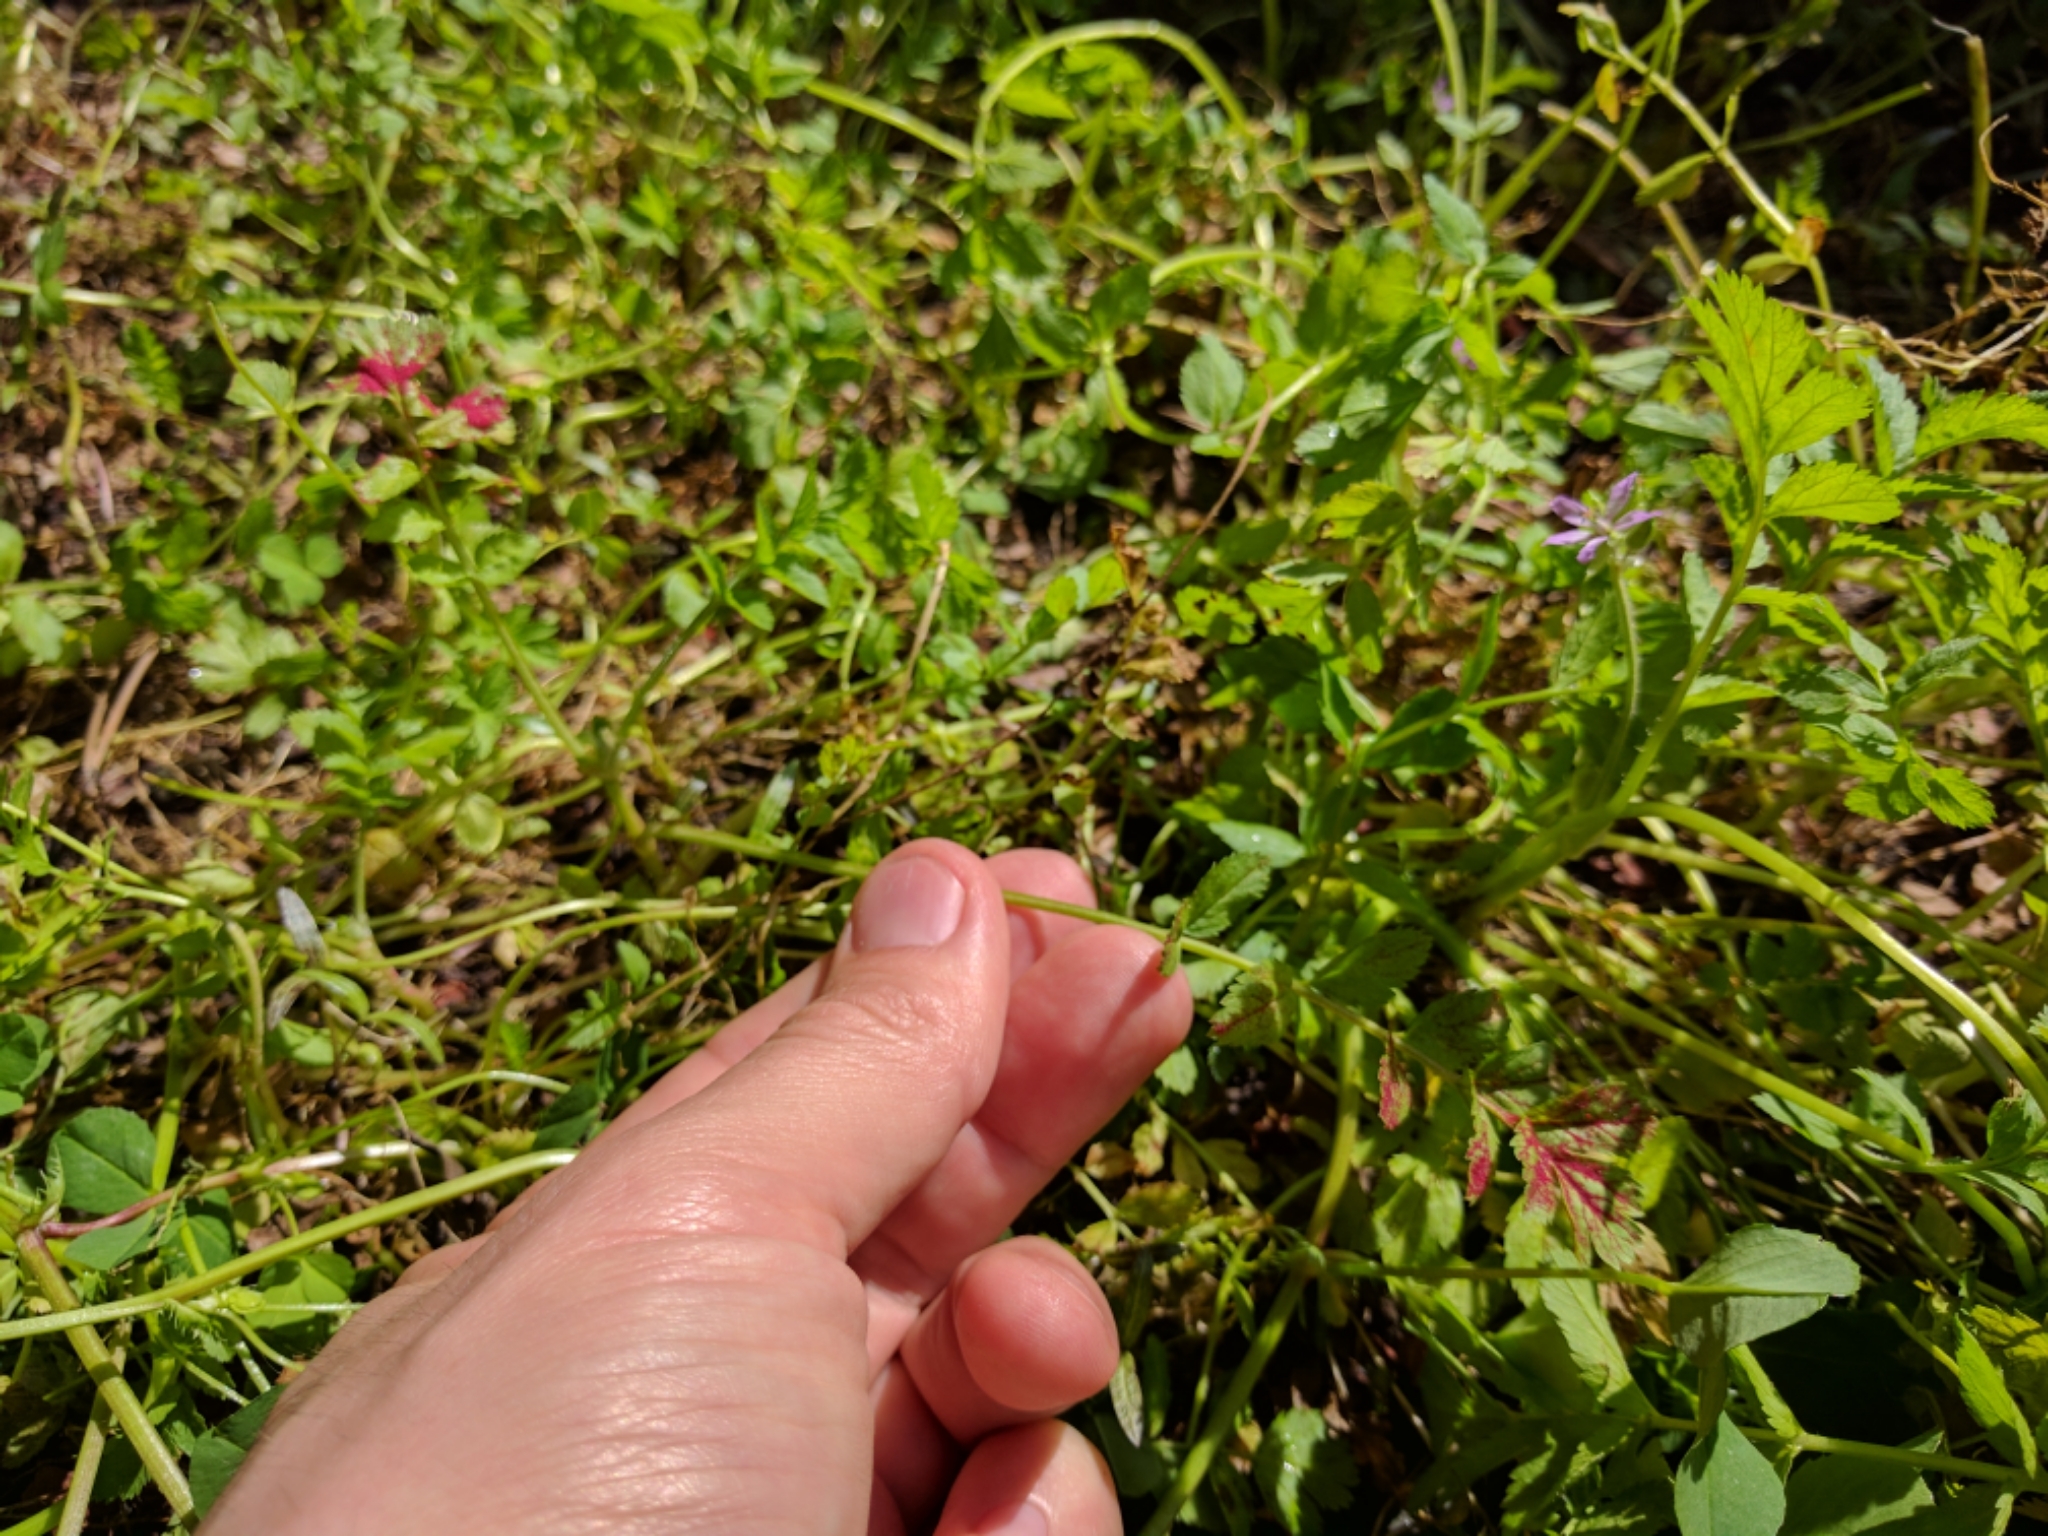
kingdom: Fungi
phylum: Chytridiomycota
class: Chytridiomycetes
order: Chytridiales
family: Synchytriaceae
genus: Synchytrium
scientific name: Synchytrium papillatum
